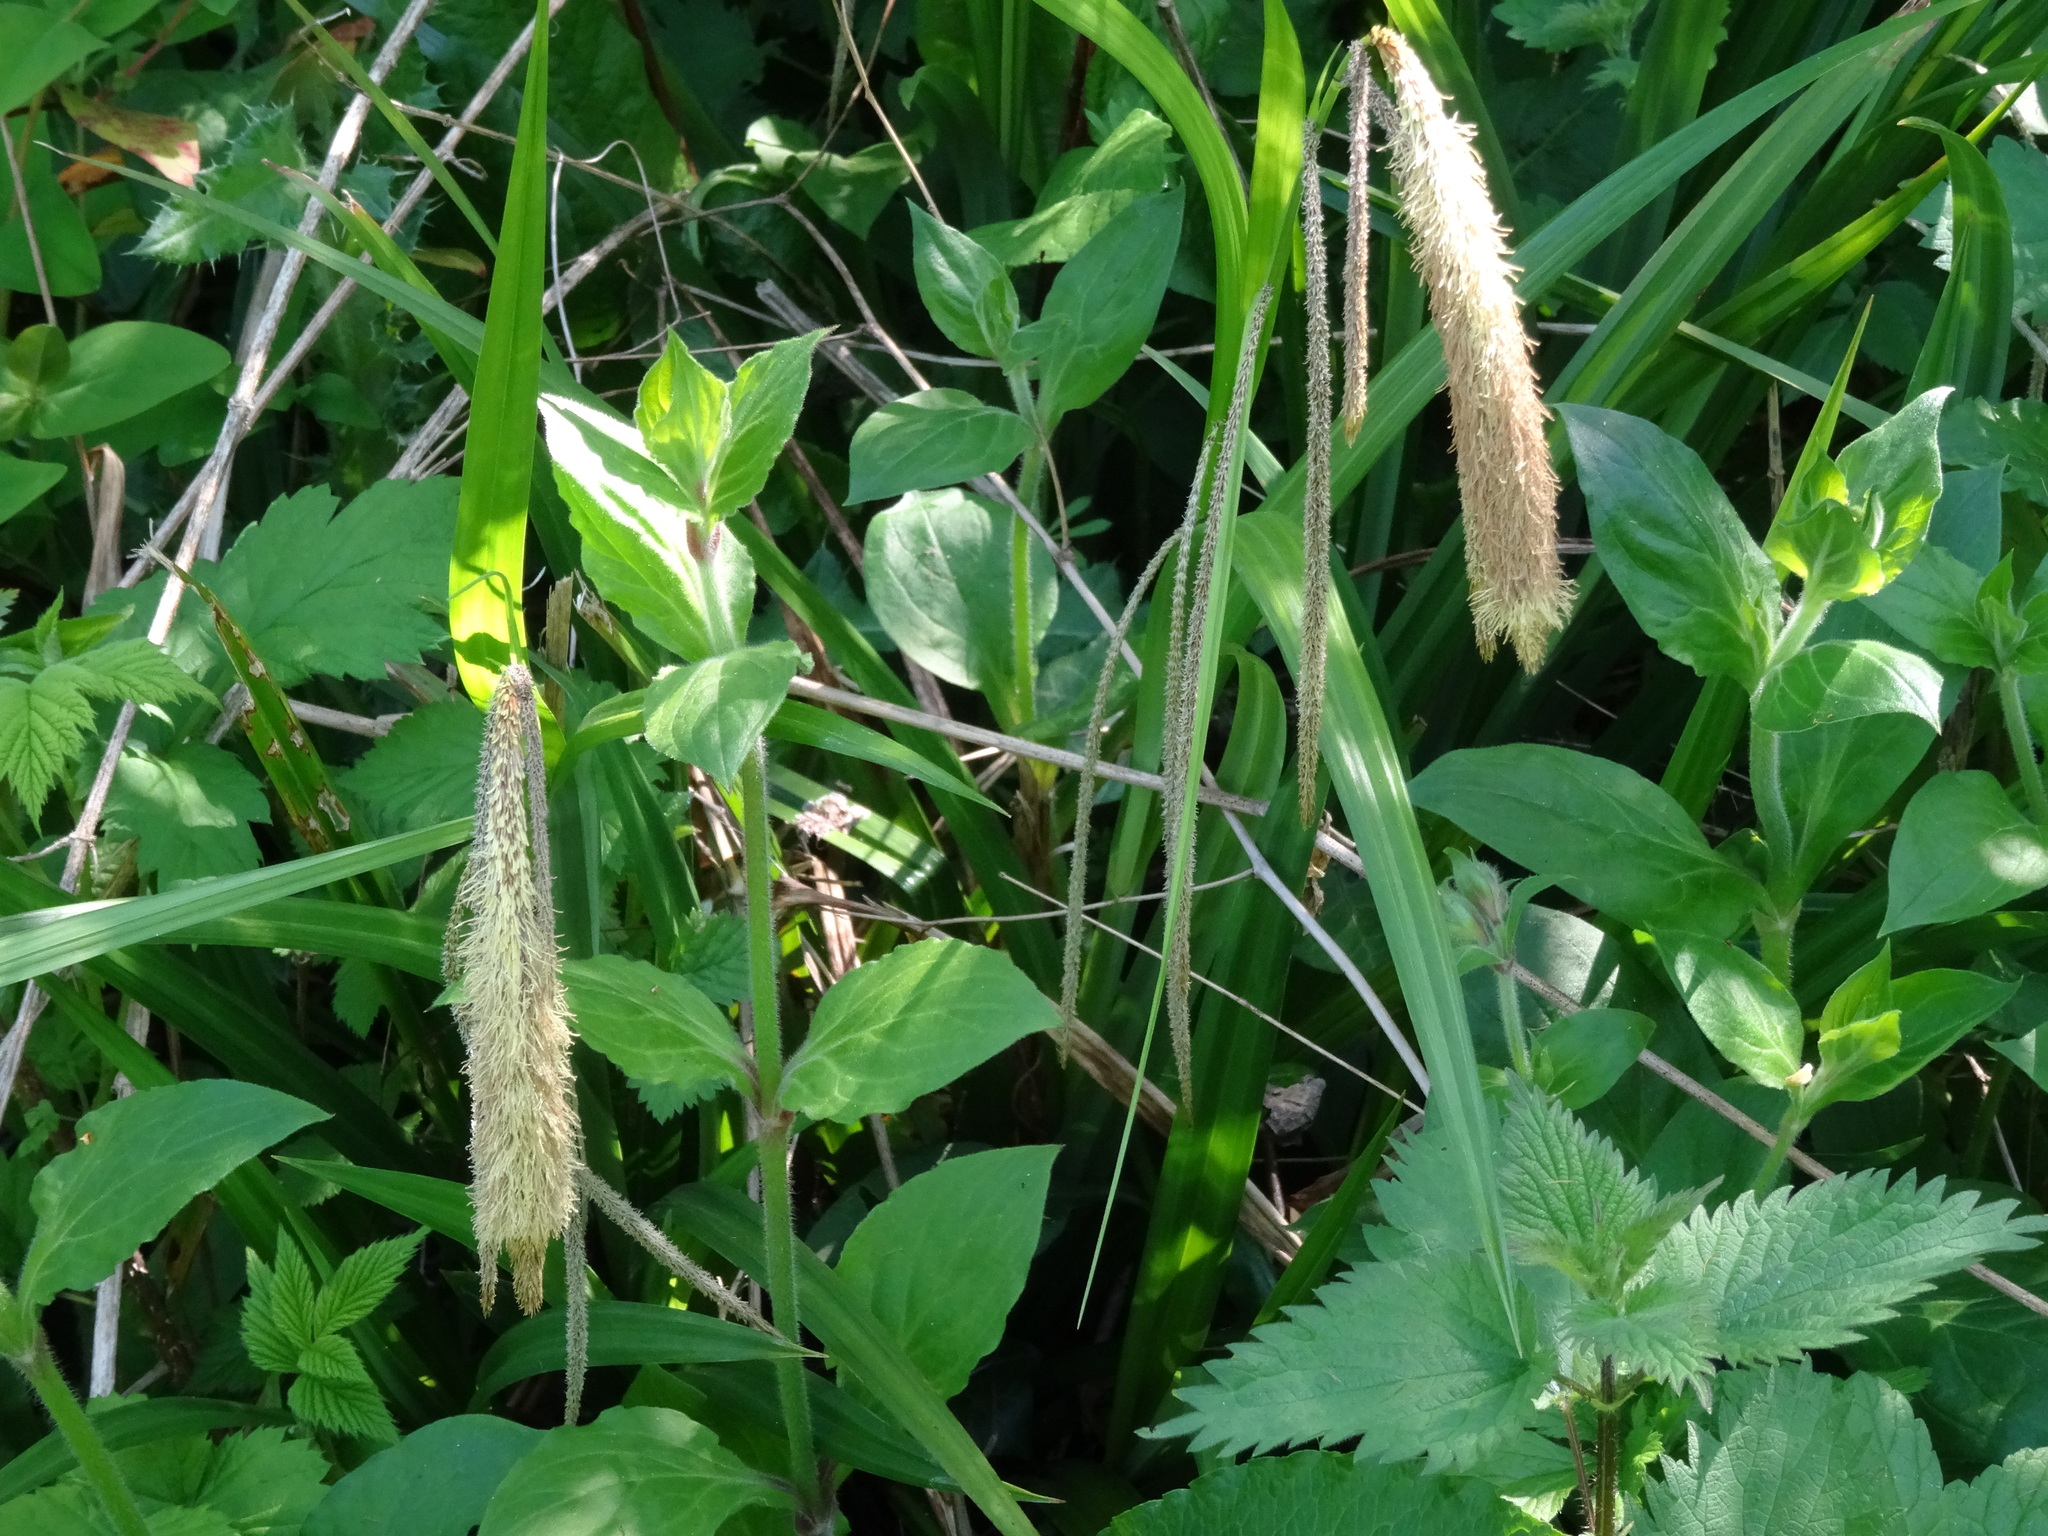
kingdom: Plantae
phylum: Tracheophyta
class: Liliopsida
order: Poales
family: Cyperaceae
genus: Carex
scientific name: Carex pendula
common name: Pendulous sedge
